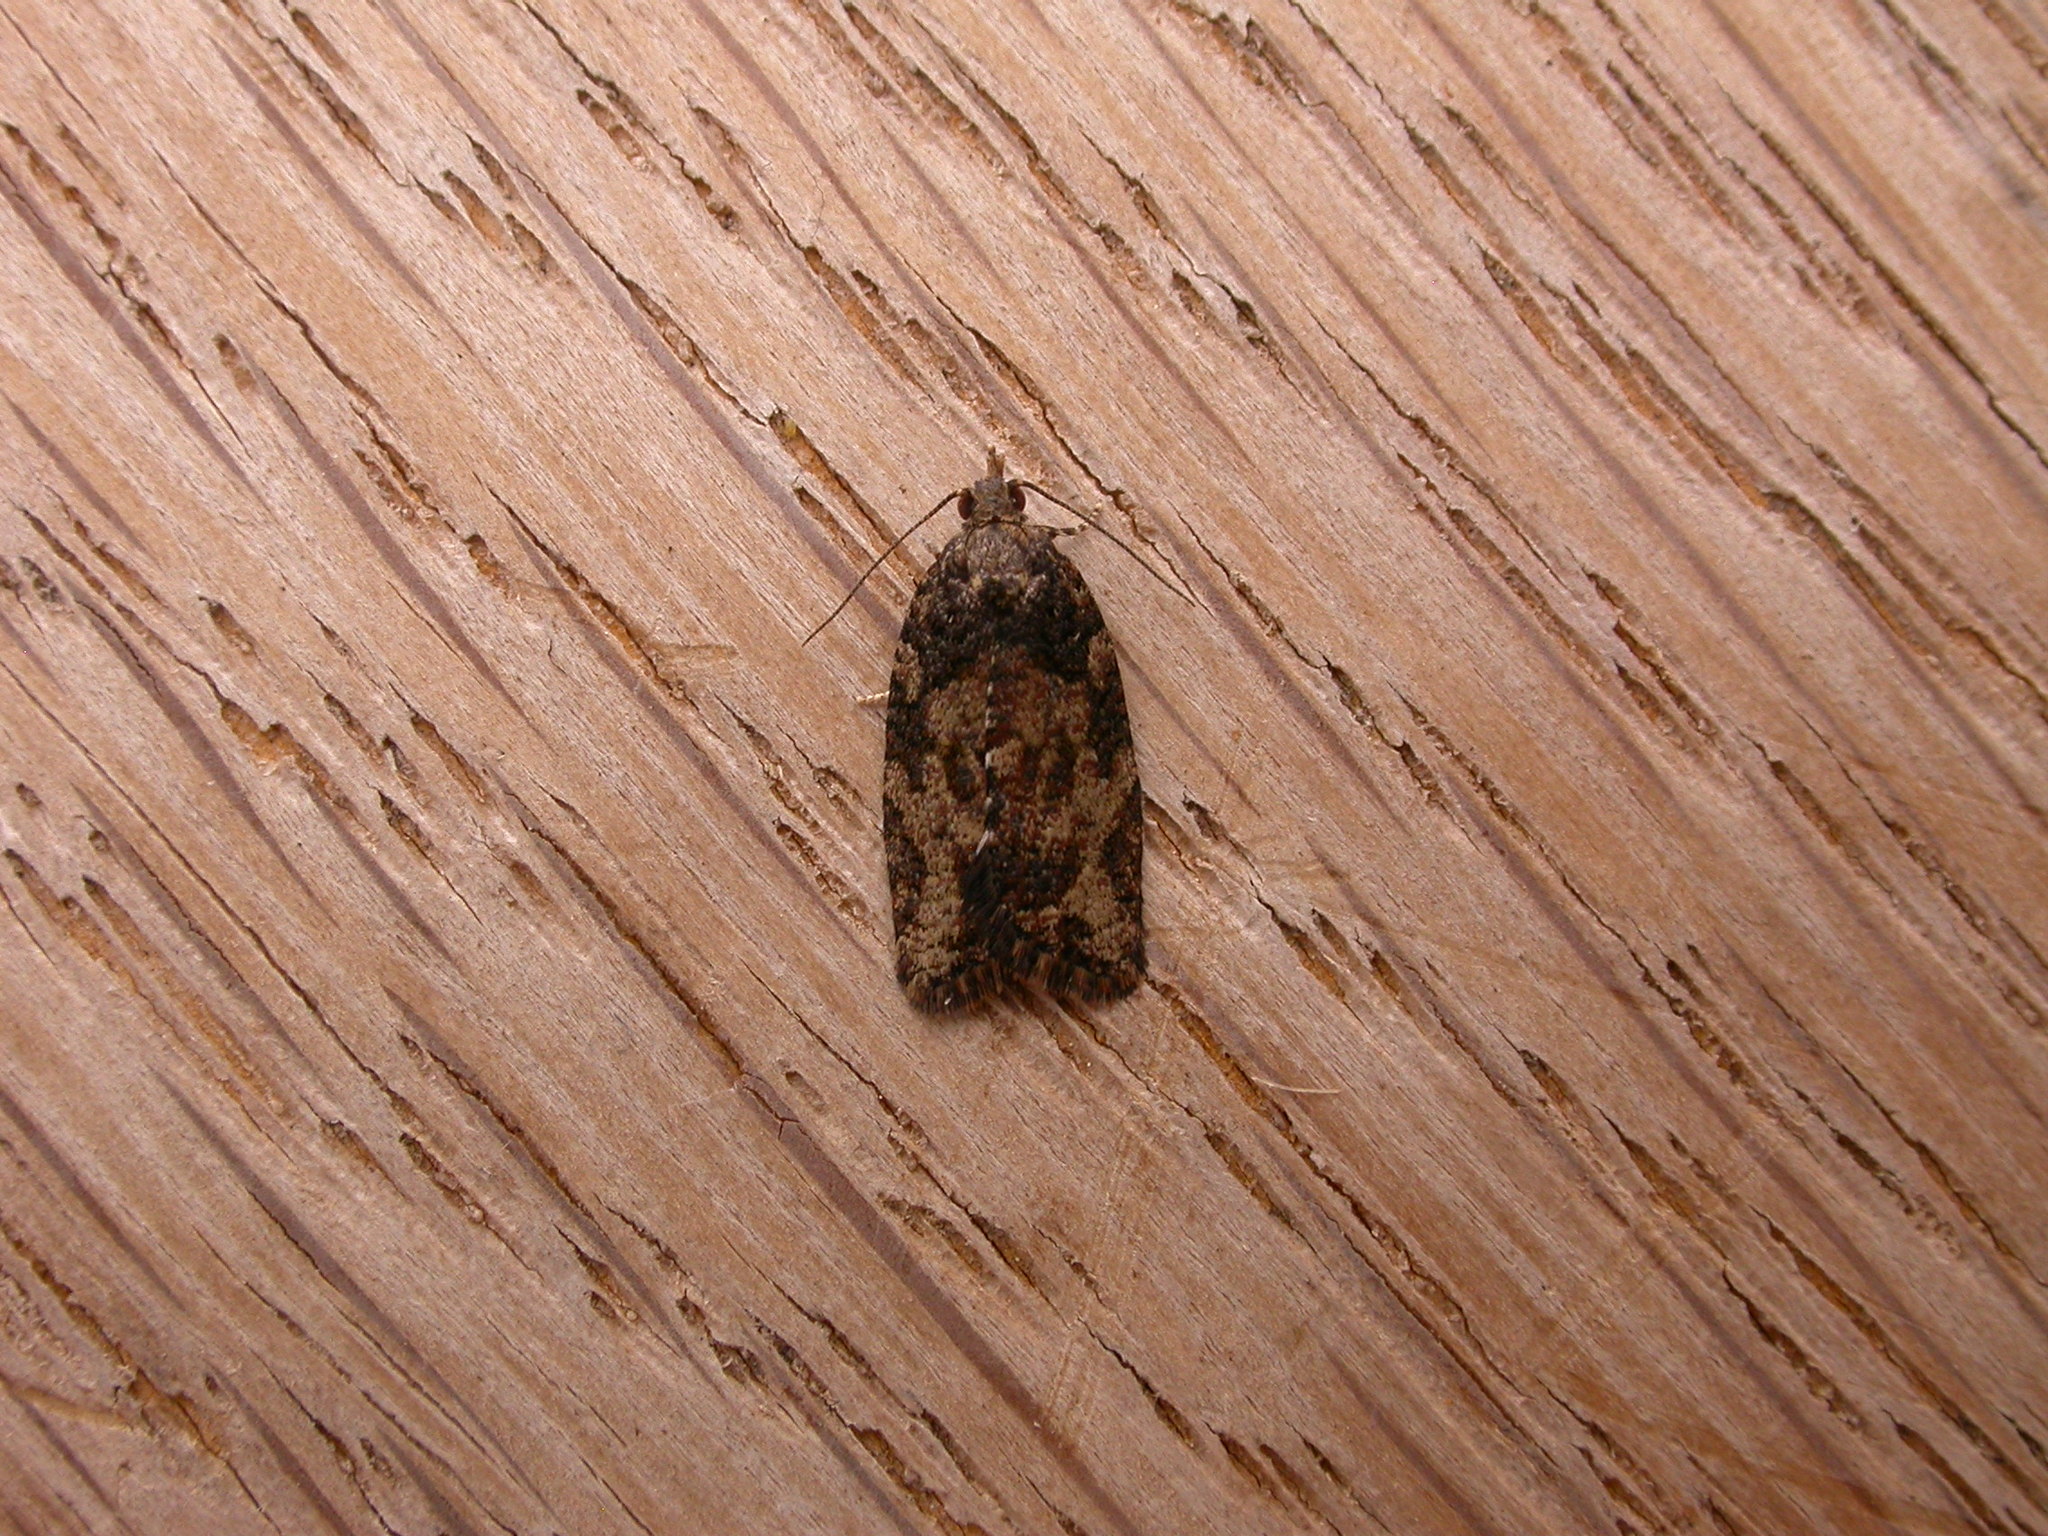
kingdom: Animalia
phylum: Arthropoda
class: Insecta
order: Lepidoptera
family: Tortricidae
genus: Capua
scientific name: Capua intractana
